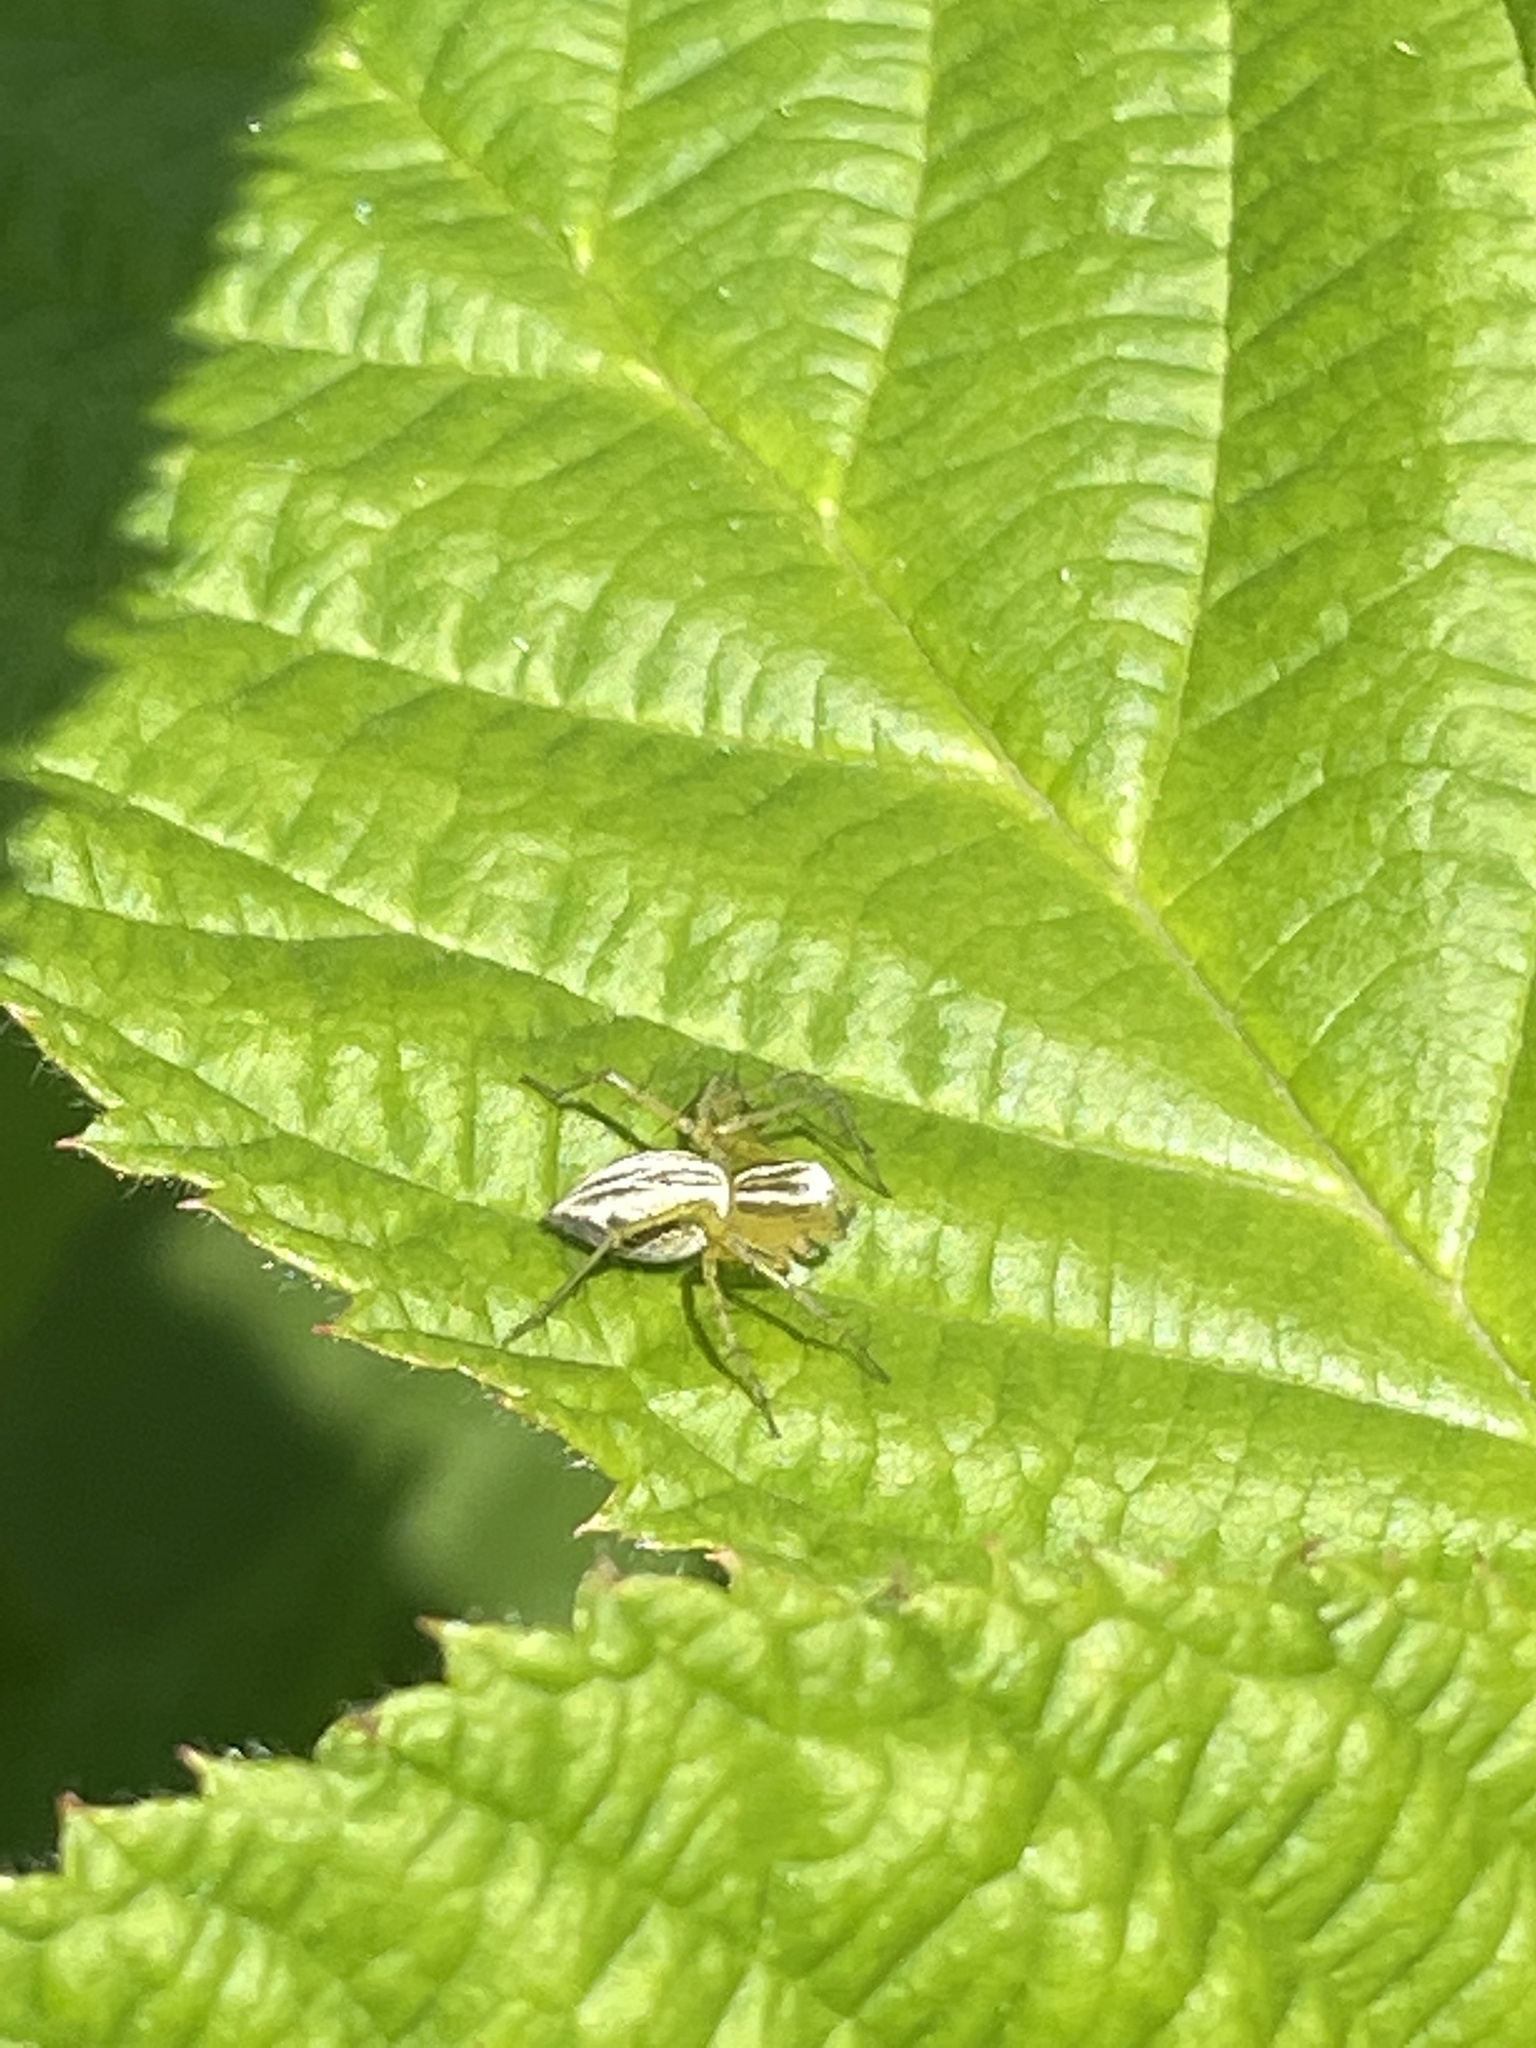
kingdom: Animalia
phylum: Arthropoda
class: Arachnida
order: Araneae
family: Oxyopidae
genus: Oxyopes
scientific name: Oxyopes salticus
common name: Lynx spiders
